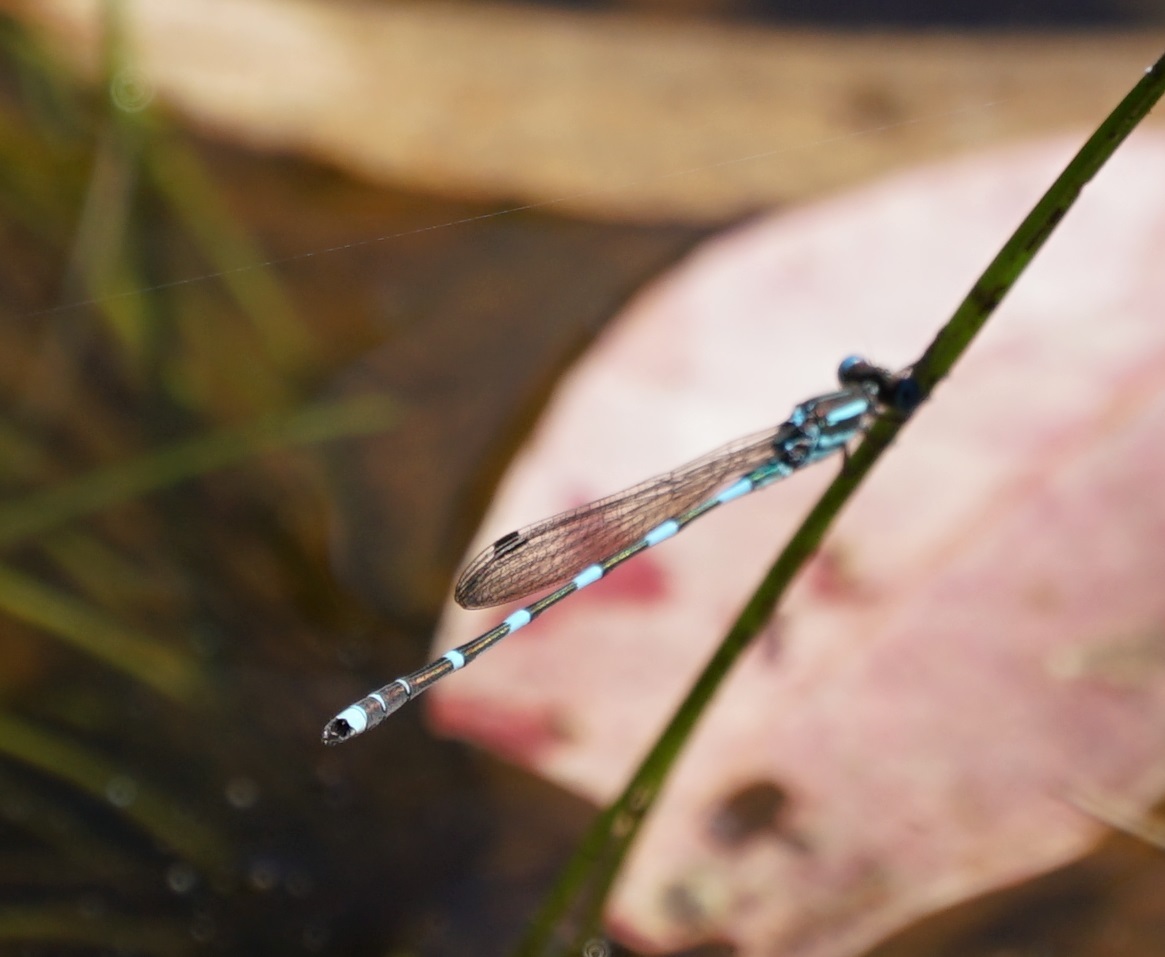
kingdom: Animalia
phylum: Arthropoda
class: Insecta
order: Odonata
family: Lestidae
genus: Austrolestes
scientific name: Austrolestes leda
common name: Wandering ringtail
